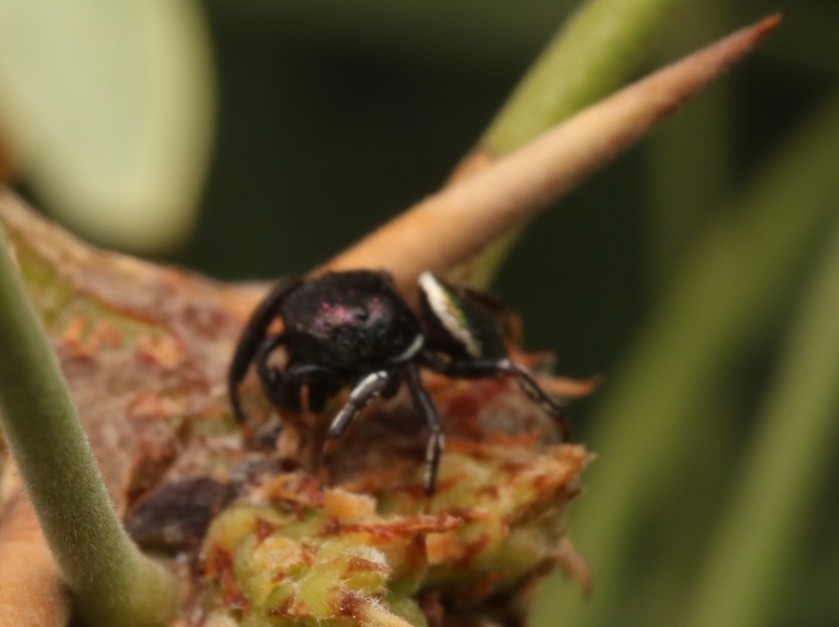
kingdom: Animalia
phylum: Arthropoda
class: Arachnida
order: Araneae
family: Salticidae
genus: Sassacus
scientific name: Sassacus papenhoei
